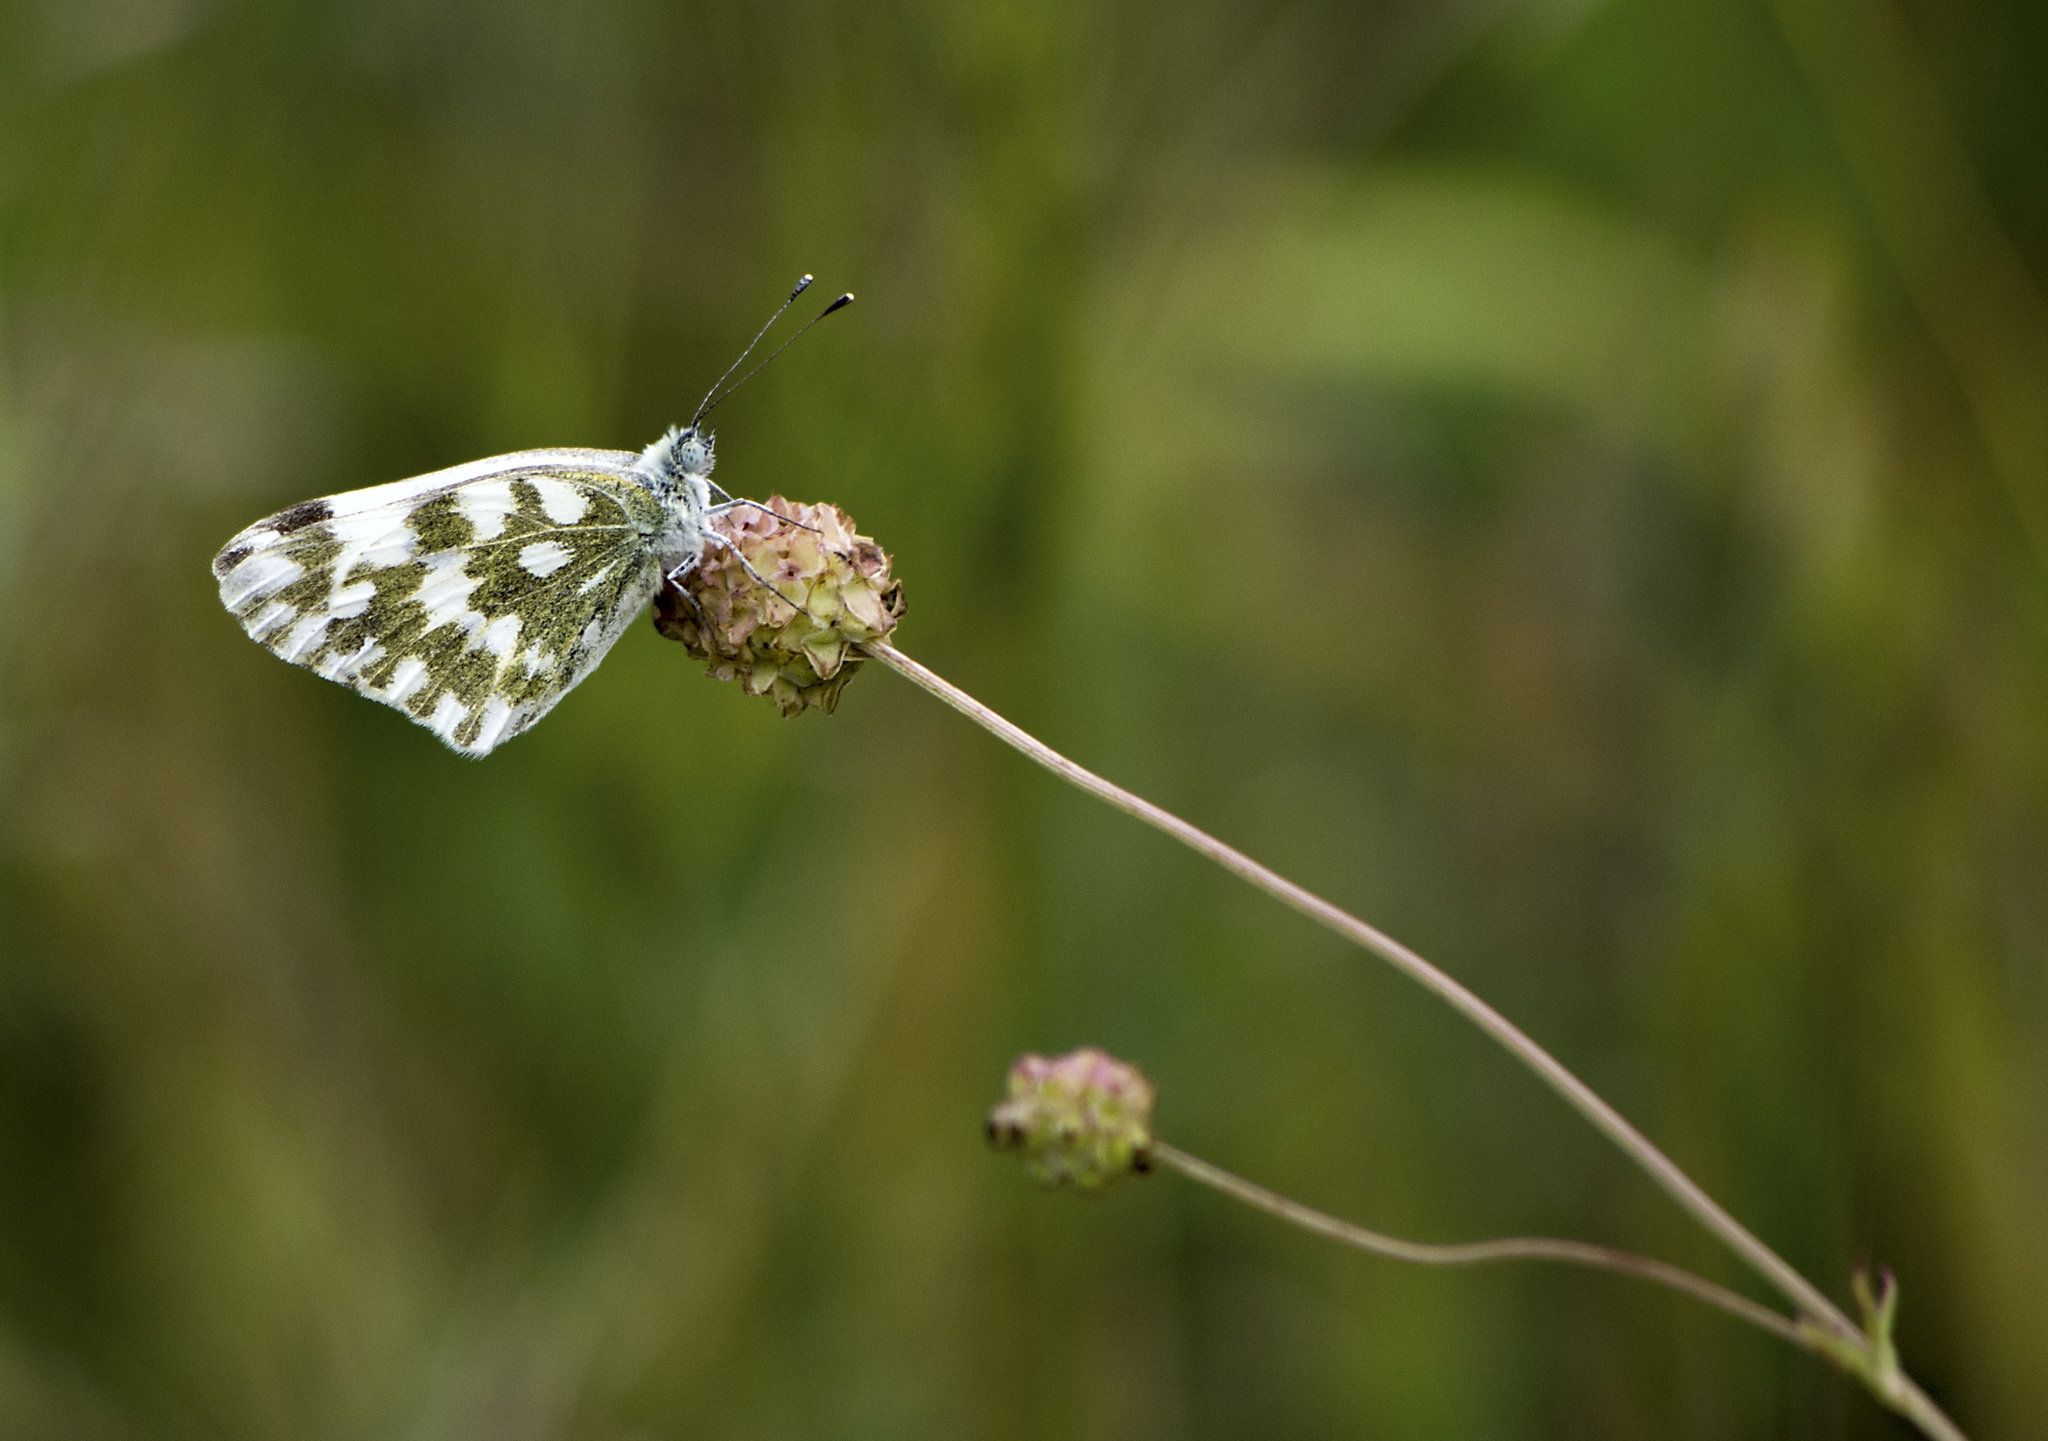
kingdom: Animalia
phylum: Arthropoda
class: Insecta
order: Lepidoptera
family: Pieridae
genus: Pontia
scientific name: Pontia edusa
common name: Eastern bath white
